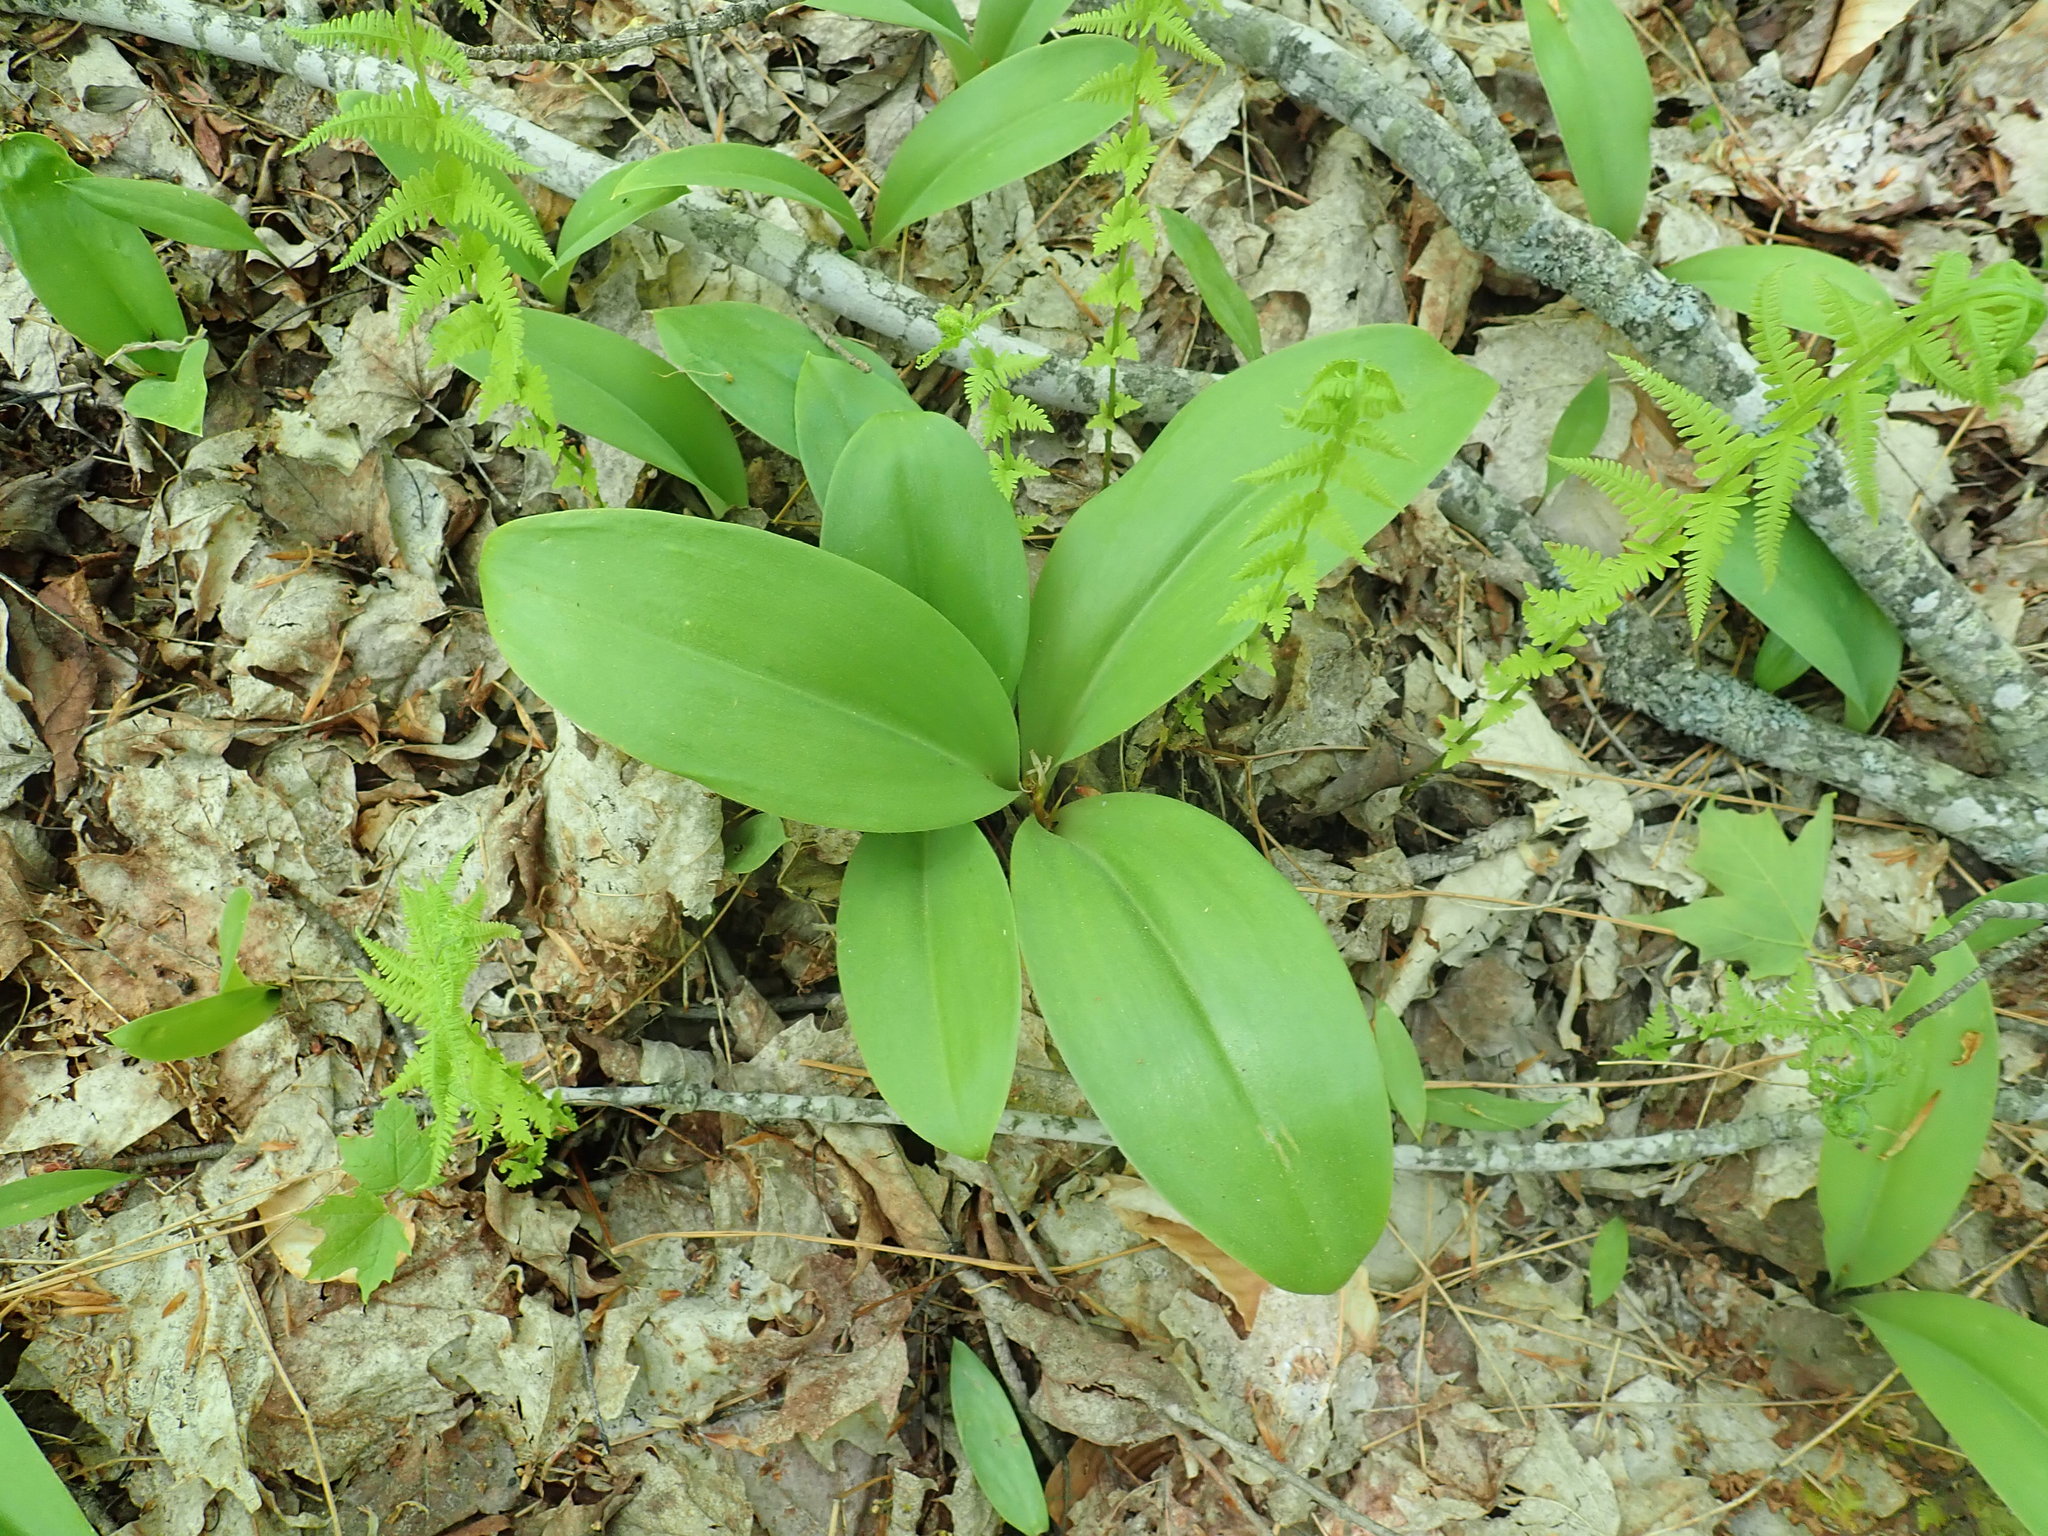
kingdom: Plantae
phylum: Tracheophyta
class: Liliopsida
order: Liliales
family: Liliaceae
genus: Clintonia
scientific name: Clintonia borealis
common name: Yellow clintonia
